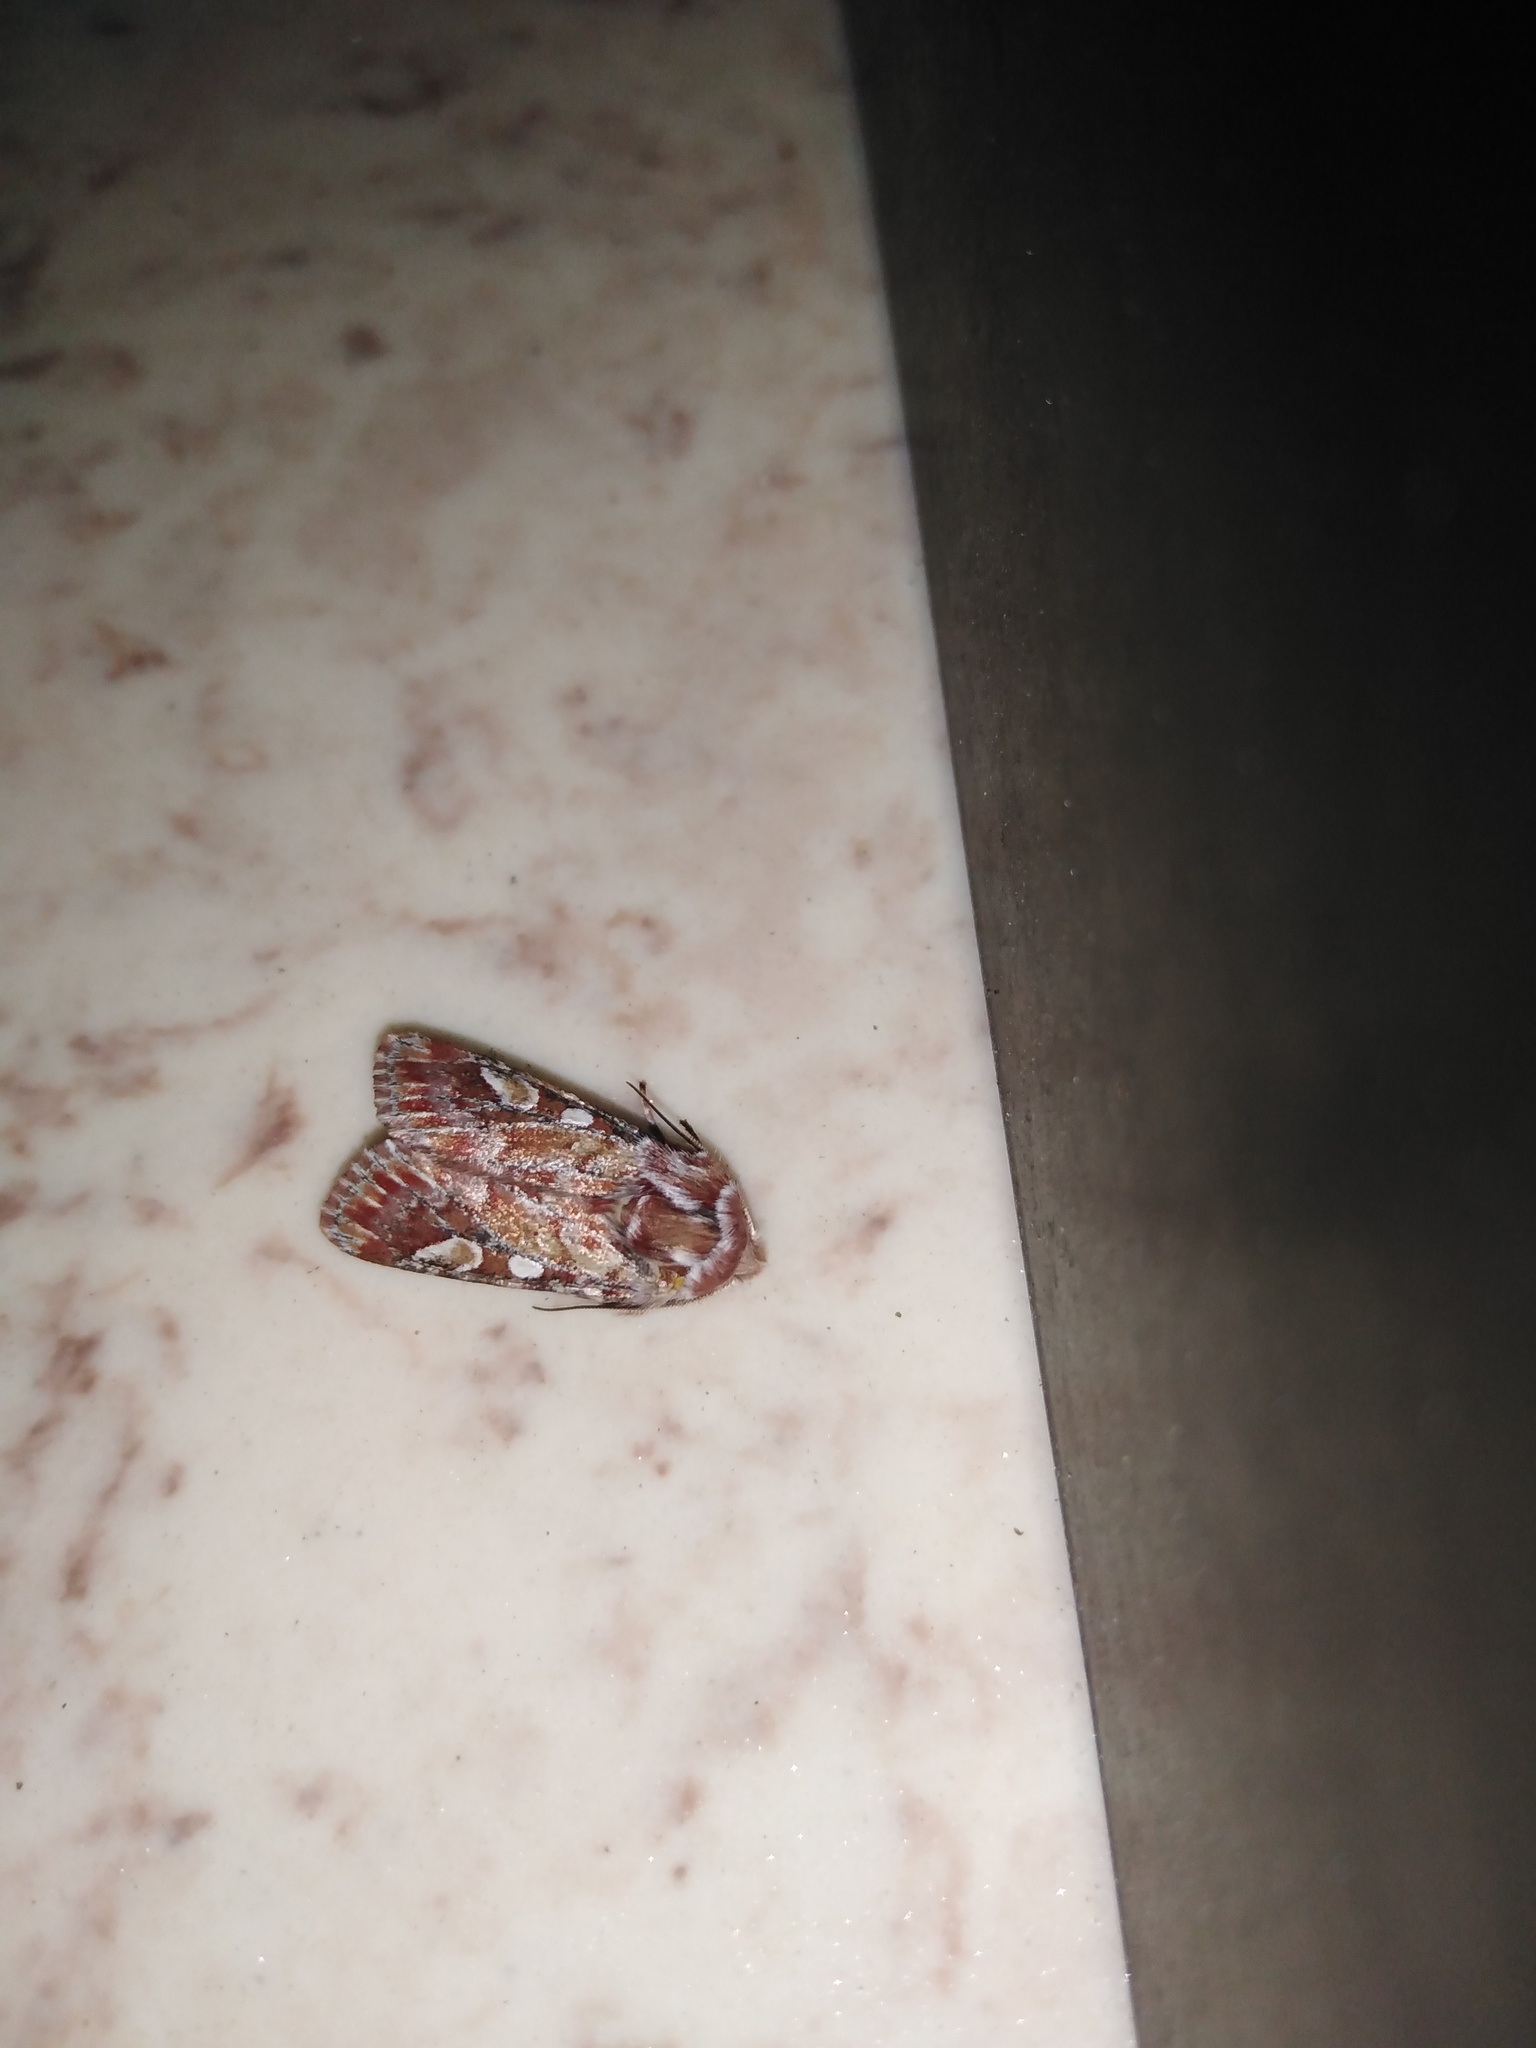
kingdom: Animalia
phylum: Arthropoda
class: Insecta
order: Lepidoptera
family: Noctuidae
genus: Panolis
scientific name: Panolis flammea
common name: Pine beauty
